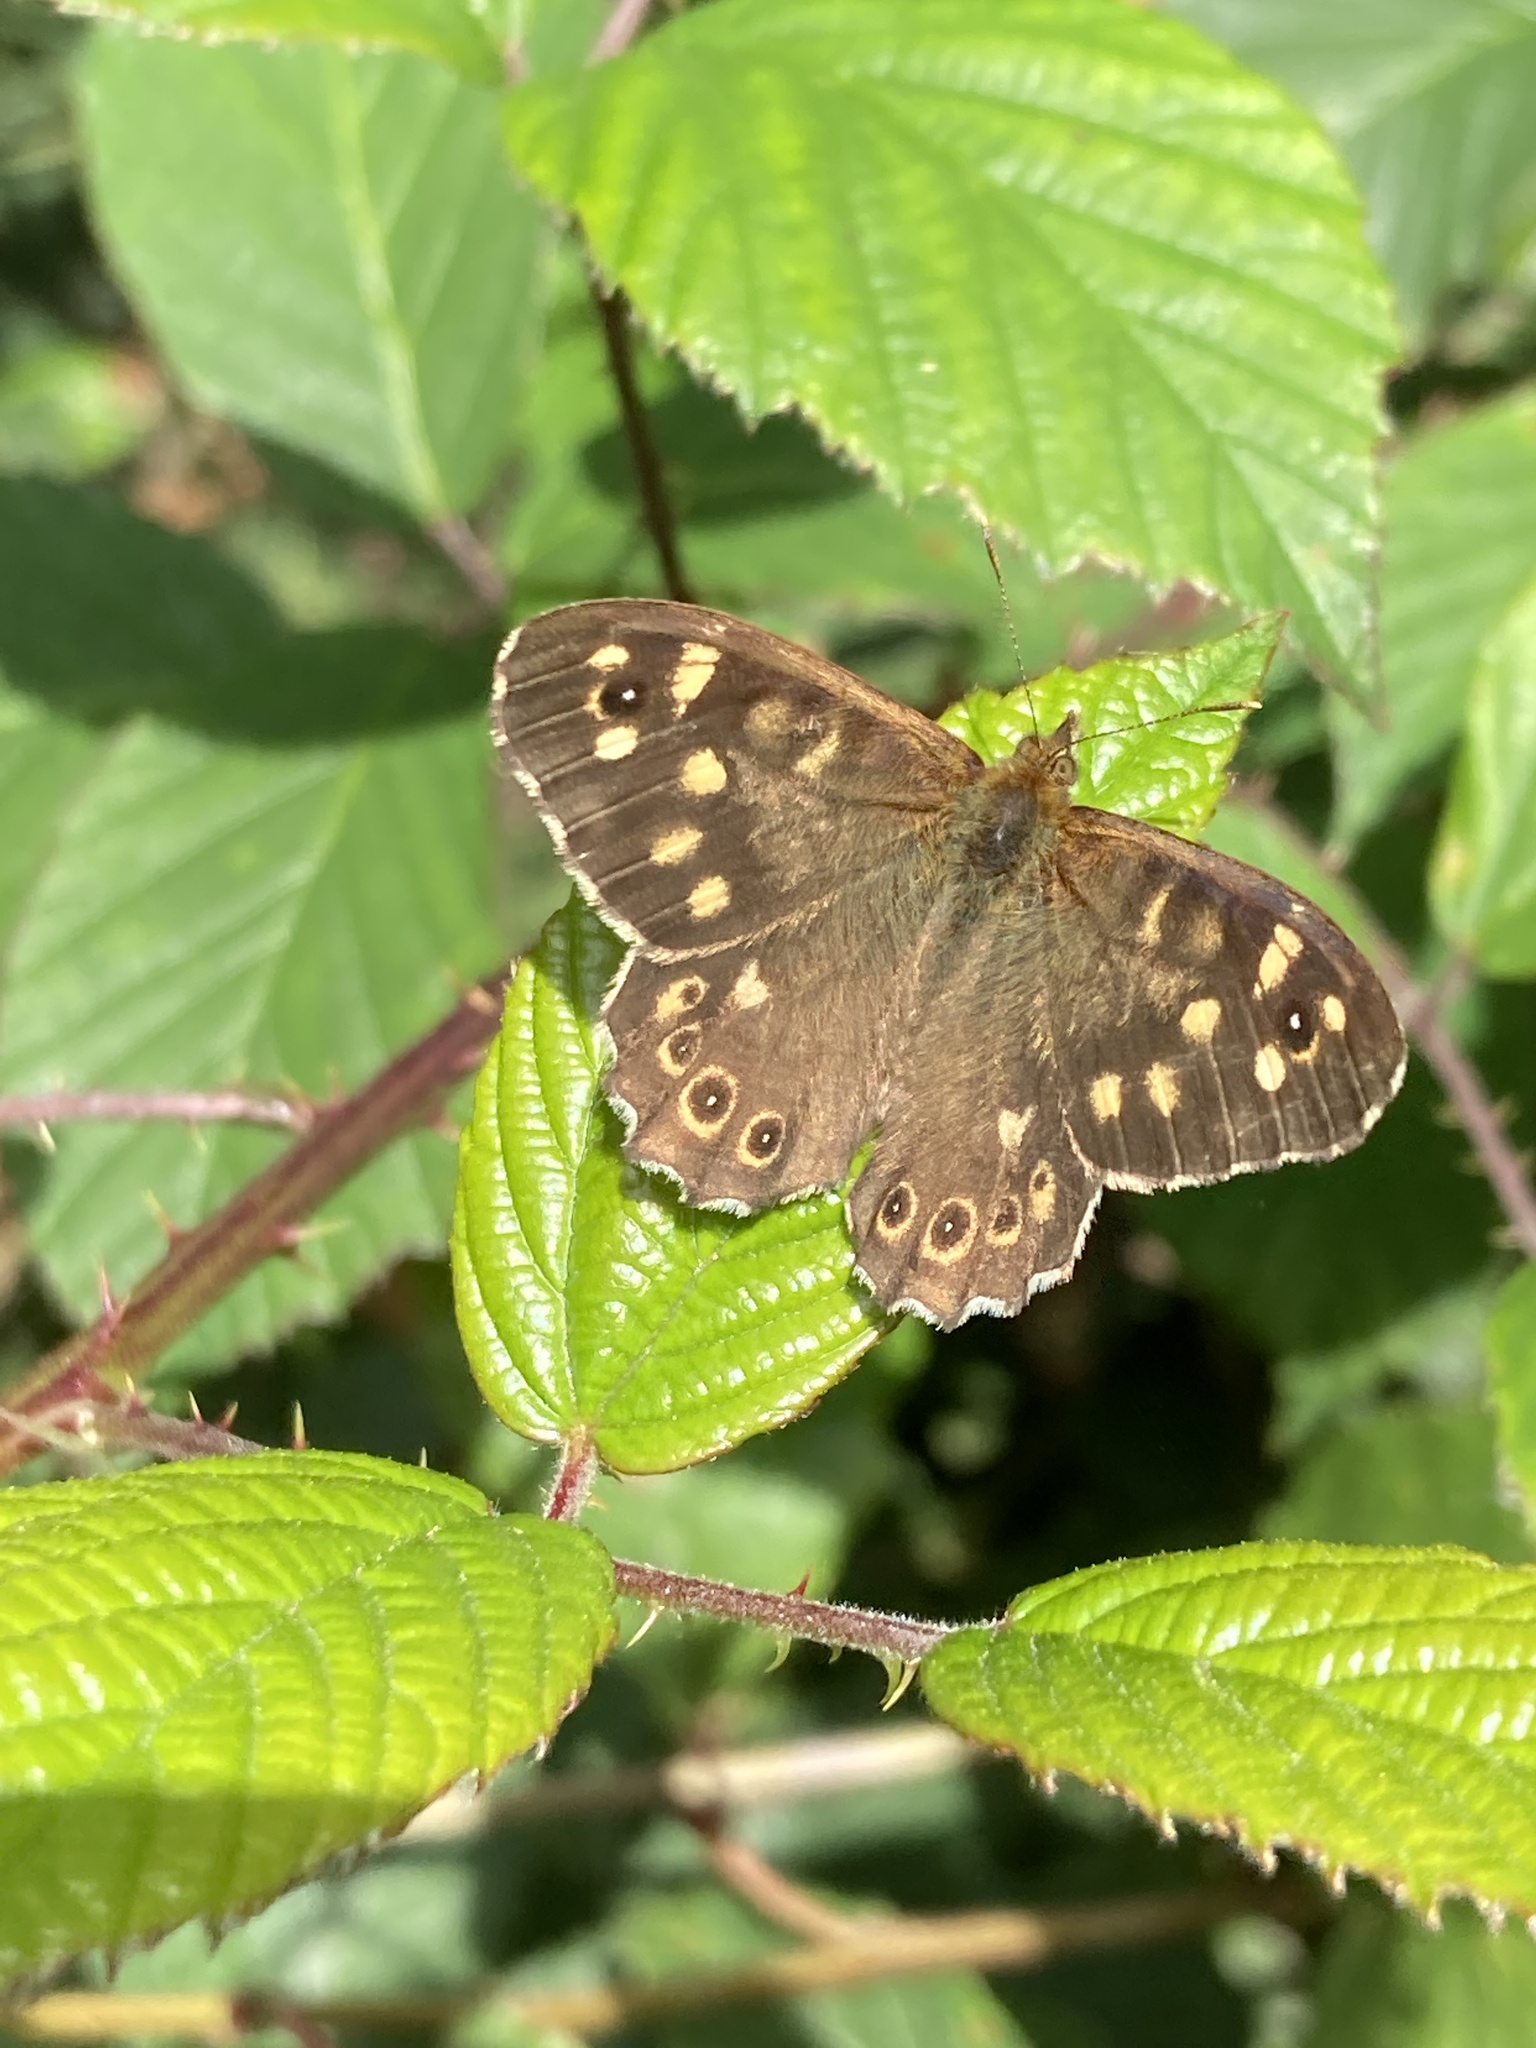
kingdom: Animalia
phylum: Arthropoda
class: Insecta
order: Lepidoptera
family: Nymphalidae
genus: Pararge
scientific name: Pararge aegeria
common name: Speckled wood
